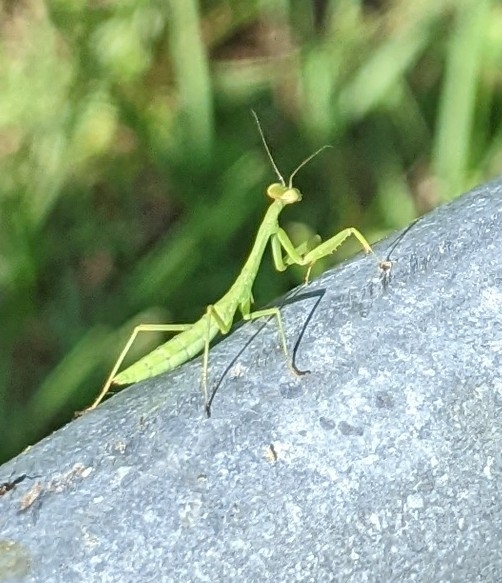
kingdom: Animalia
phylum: Arthropoda
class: Insecta
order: Mantodea
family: Mantidae
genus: Stagmomantis
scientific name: Stagmomantis carolina
